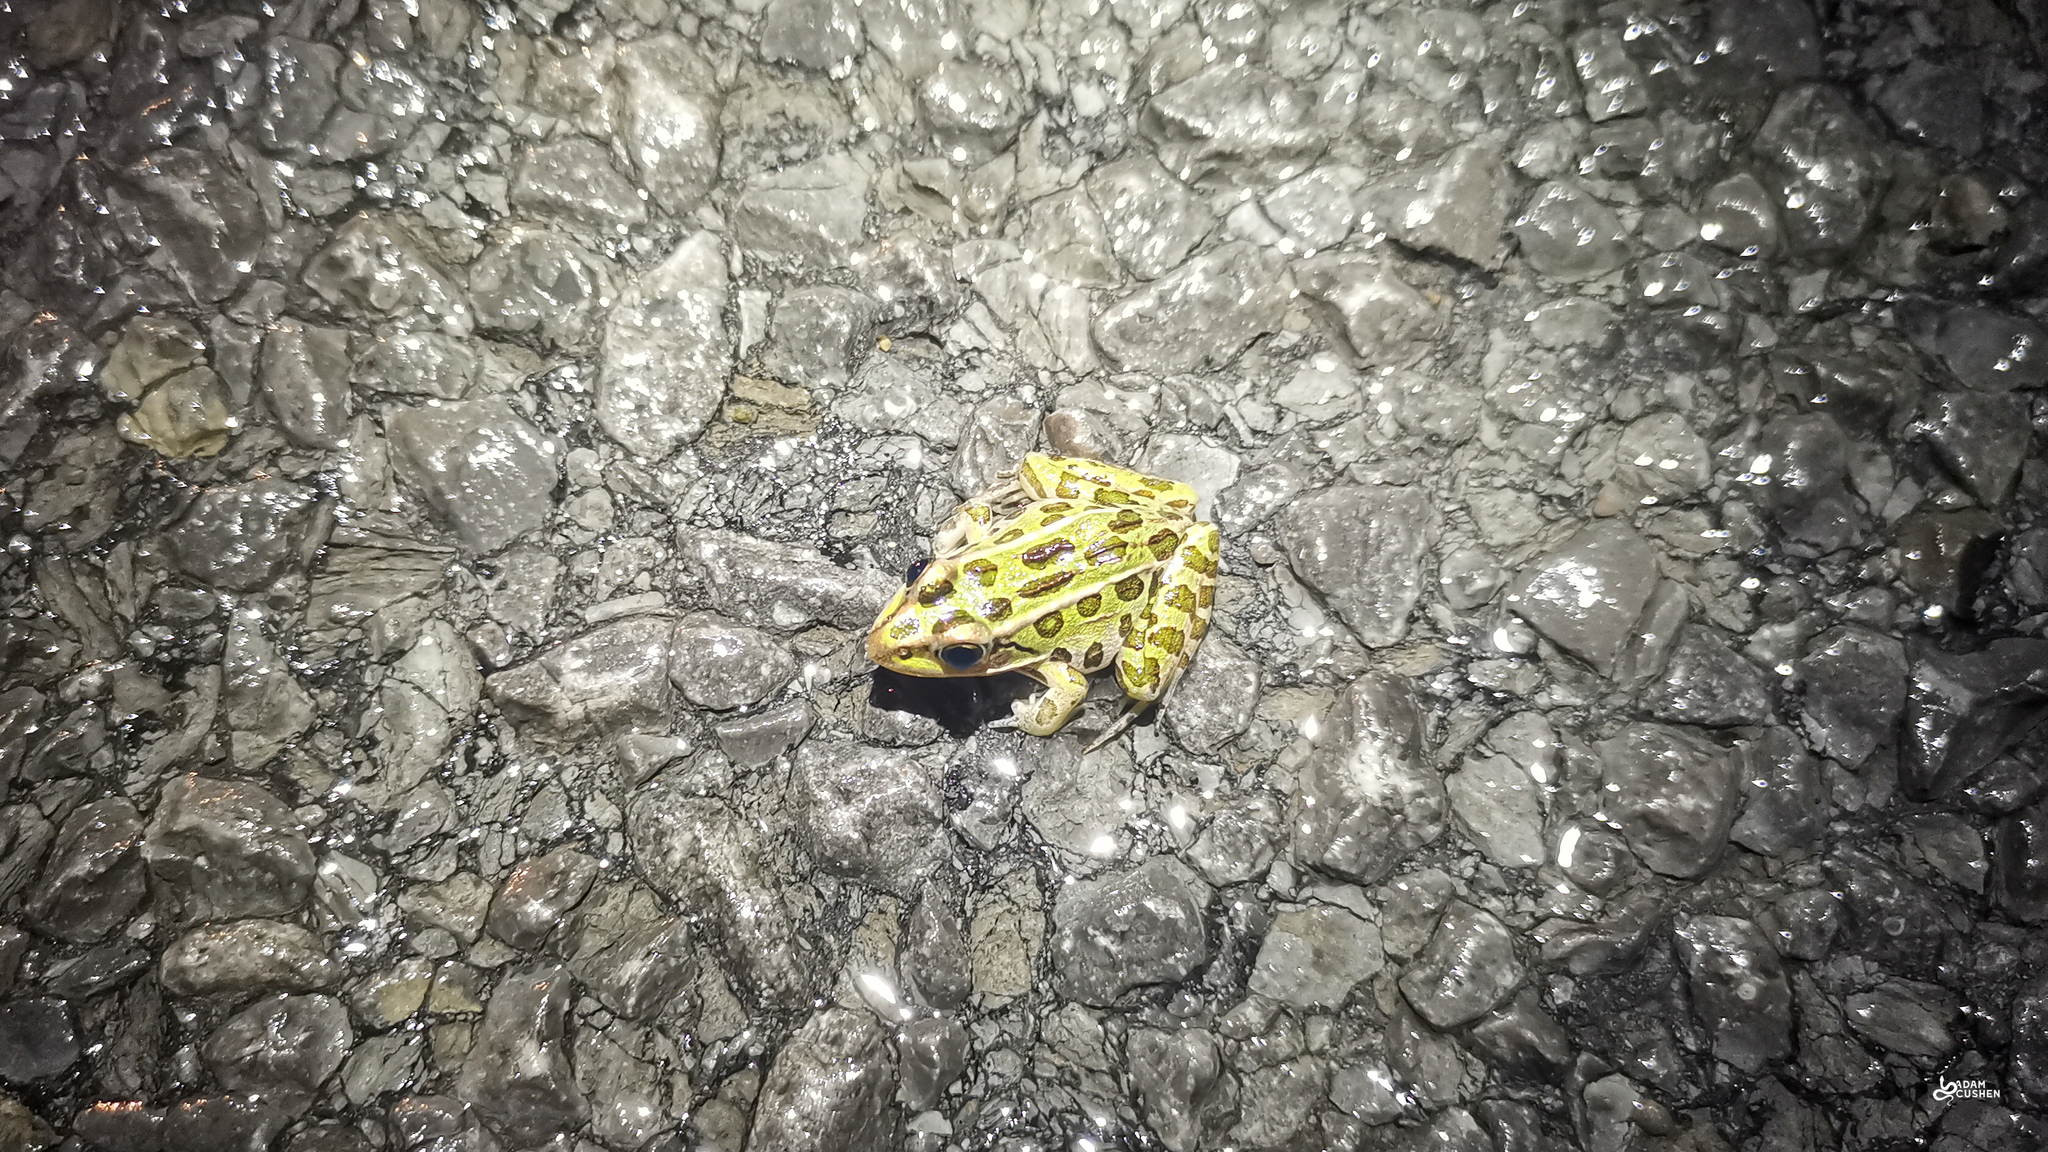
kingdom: Animalia
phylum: Chordata
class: Amphibia
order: Anura
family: Ranidae
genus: Lithobates
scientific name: Lithobates pipiens
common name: Northern leopard frog
